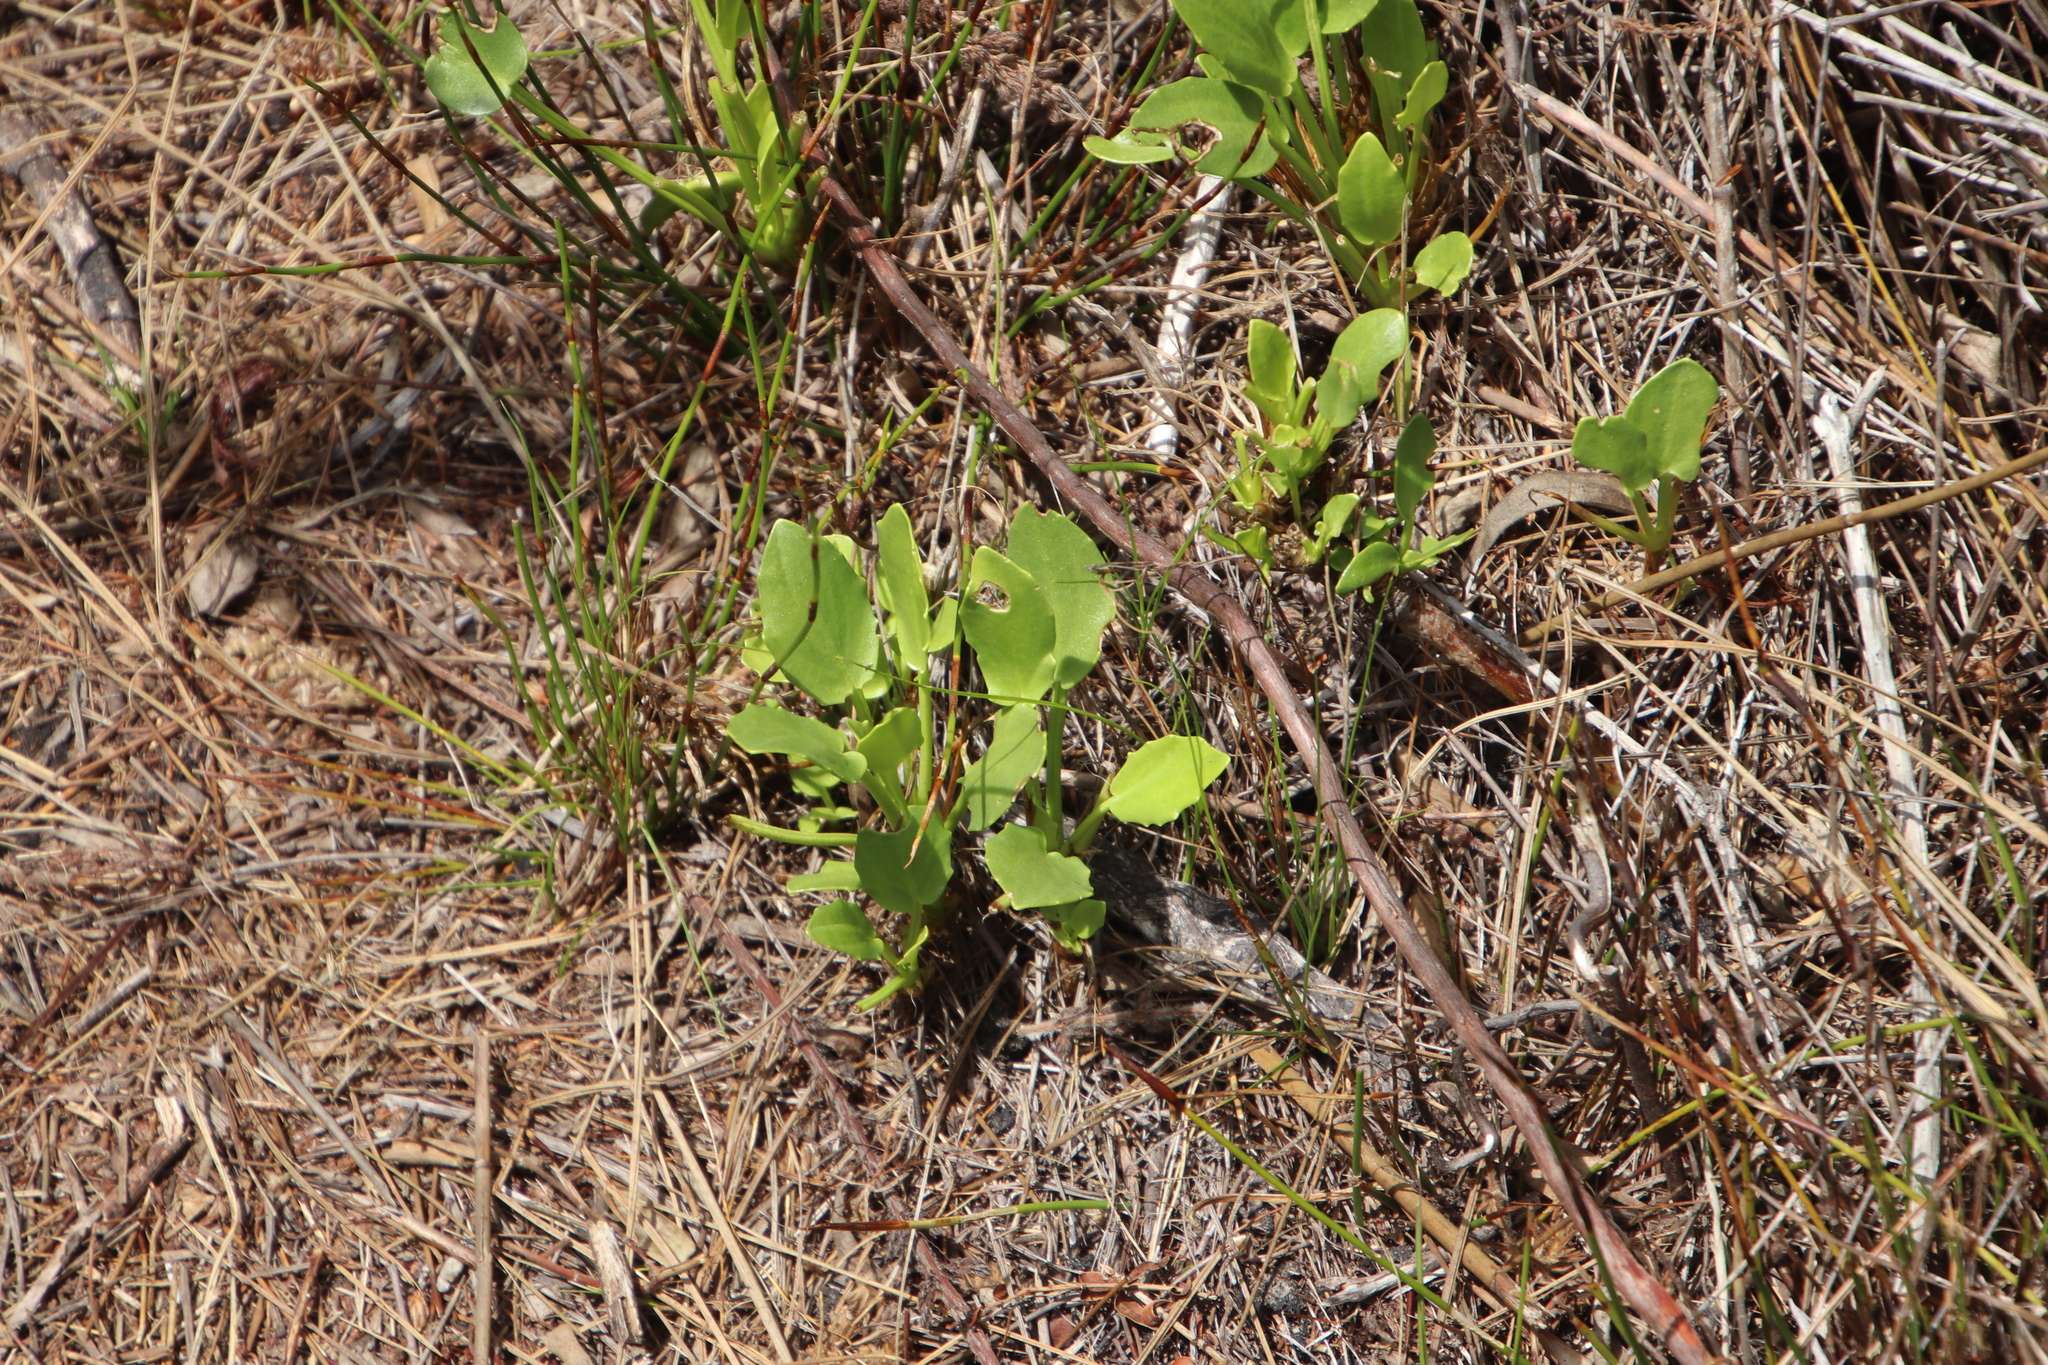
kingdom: Plantae
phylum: Tracheophyta
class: Magnoliopsida
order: Asterales
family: Menyanthaceae
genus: Villarsia
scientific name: Villarsia manningiana
